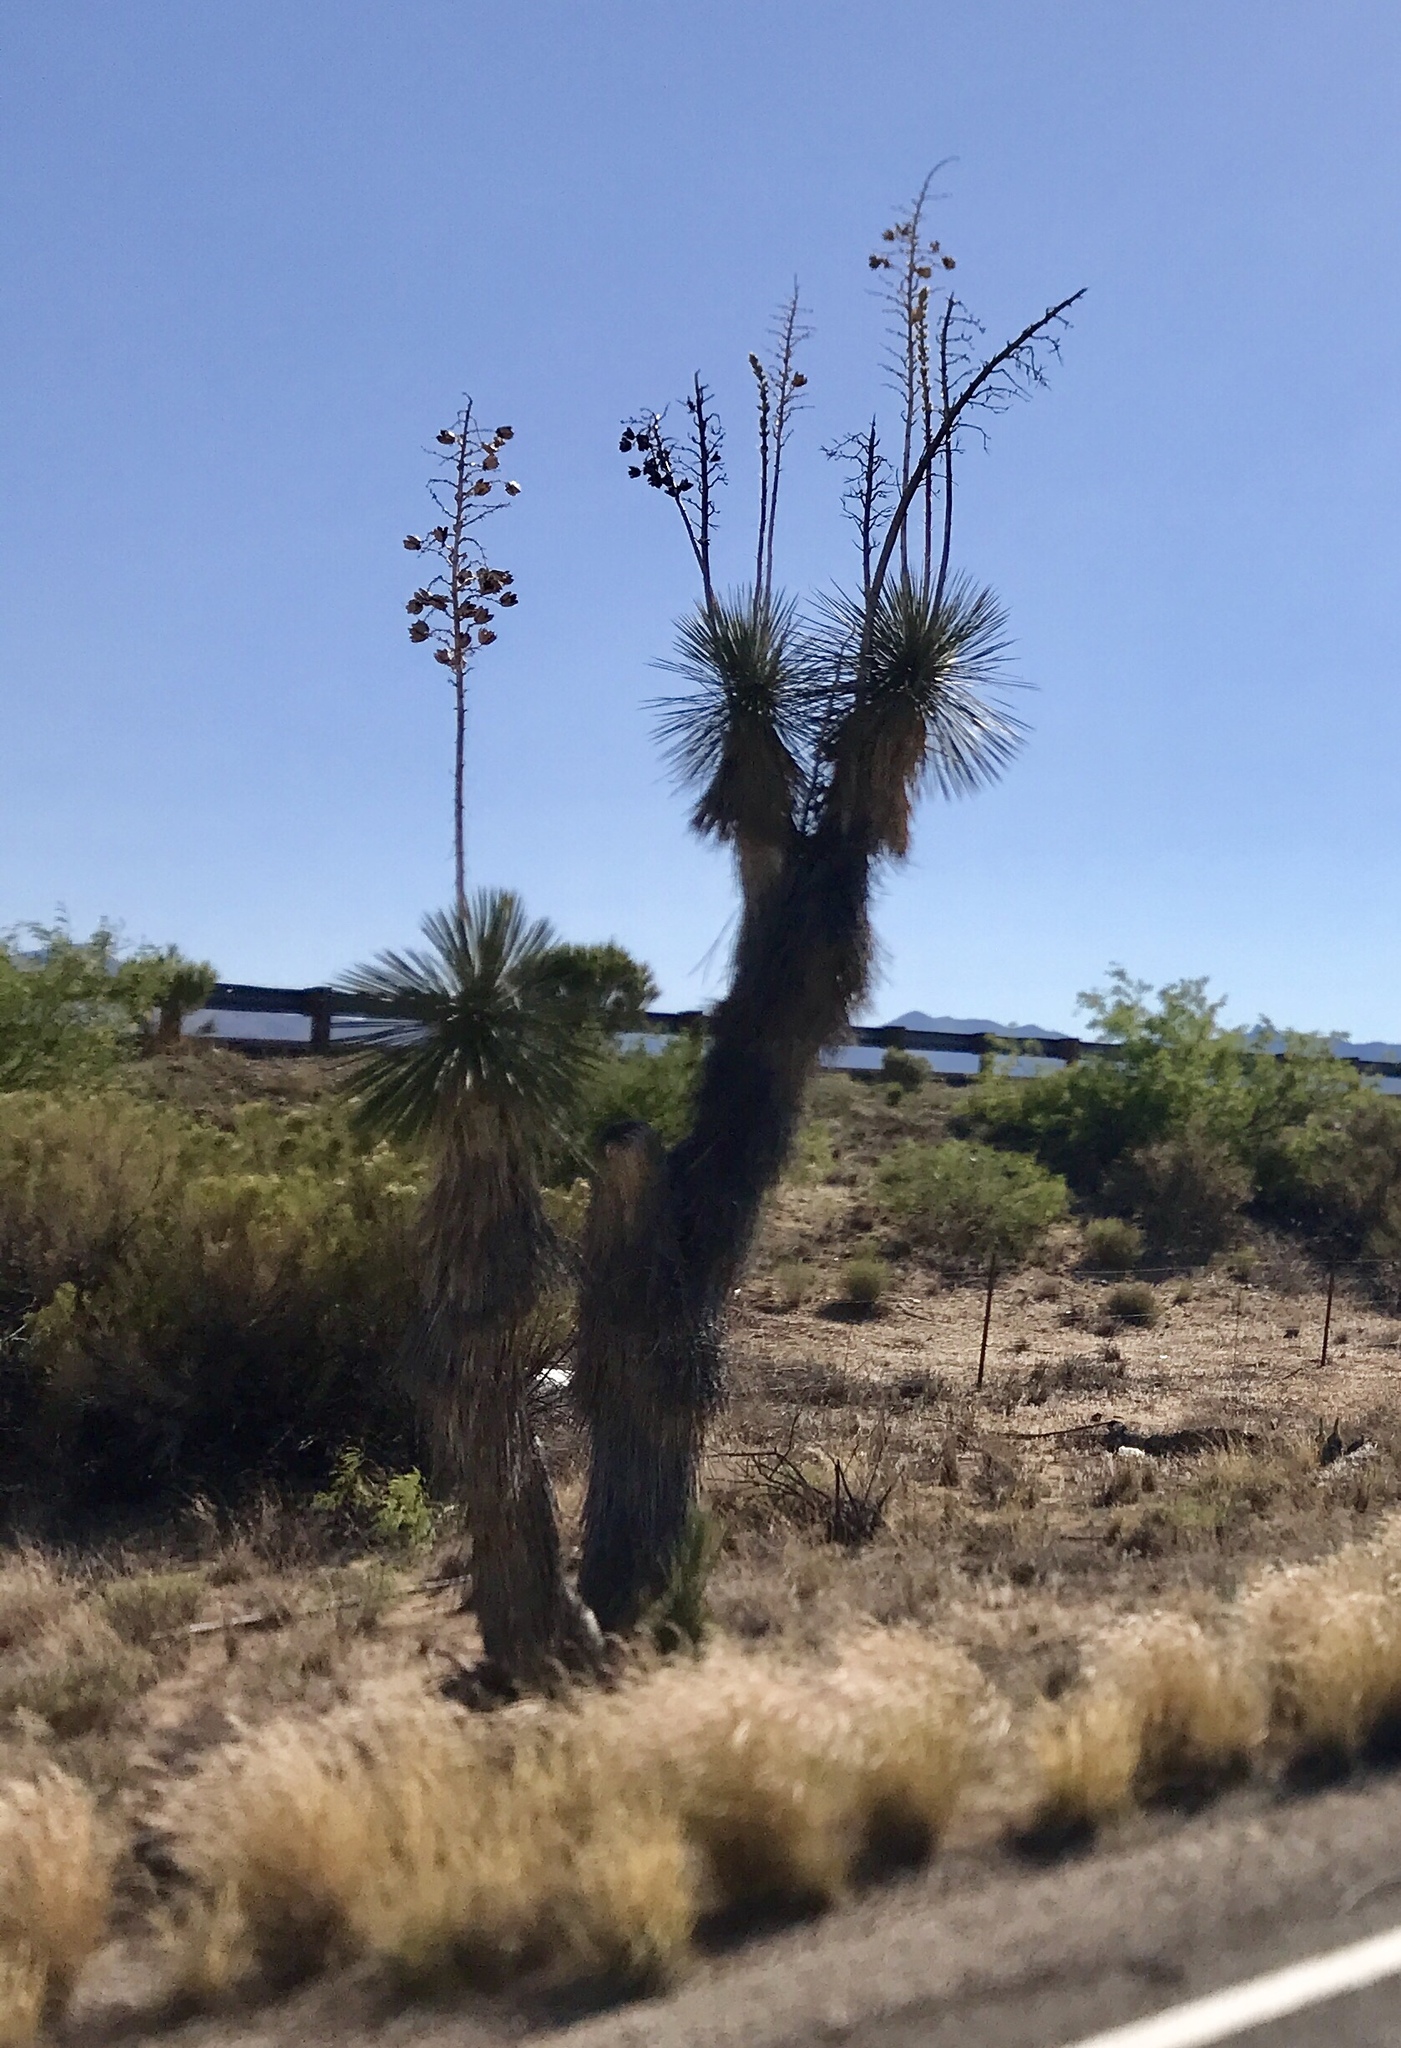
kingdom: Plantae
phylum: Tracheophyta
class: Liliopsida
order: Asparagales
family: Asparagaceae
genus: Yucca
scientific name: Yucca elata
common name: Palmella
